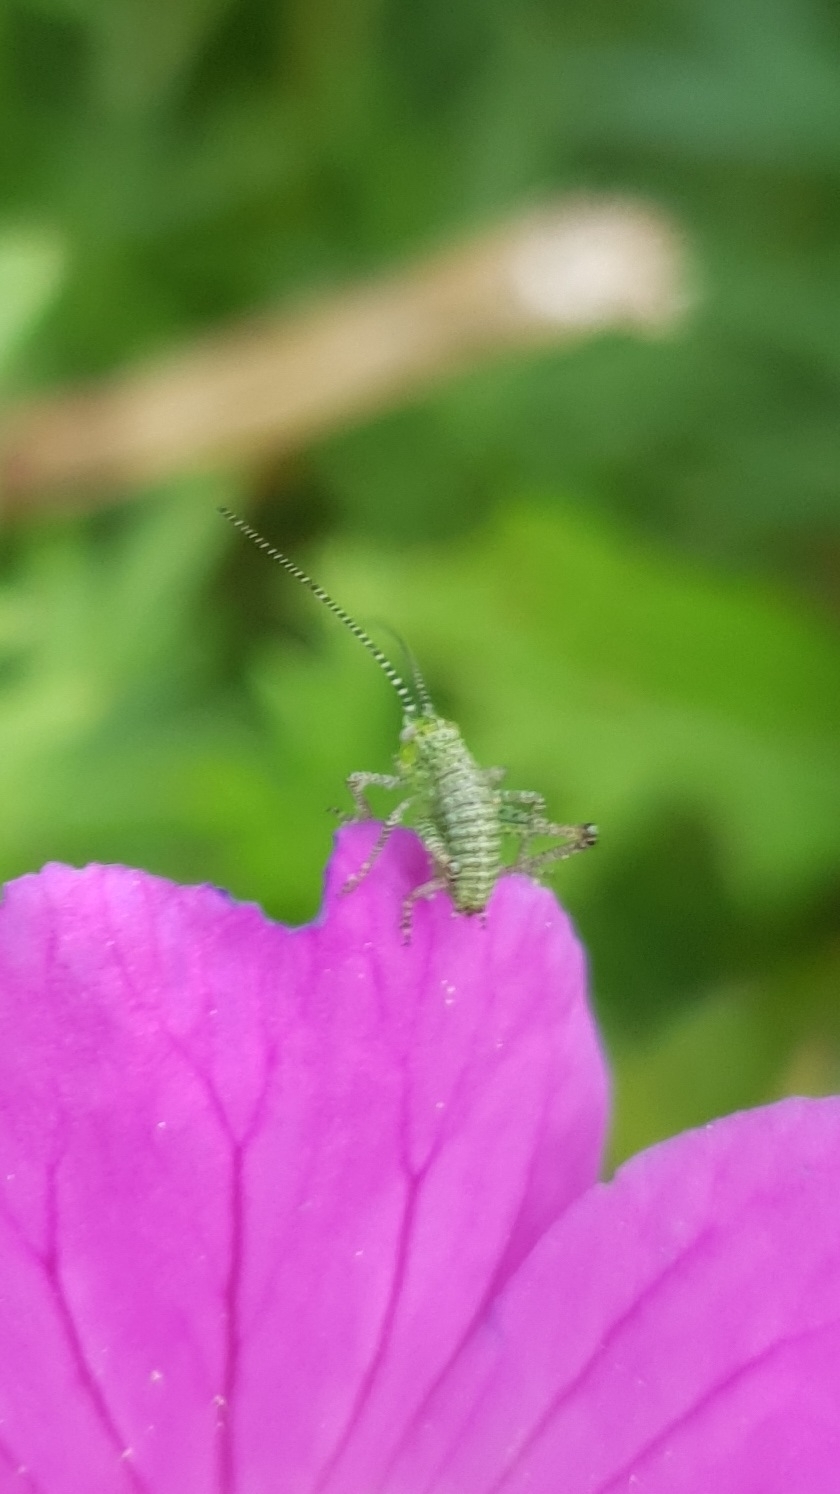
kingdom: Animalia
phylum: Arthropoda
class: Insecta
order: Orthoptera
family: Tettigoniidae
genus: Leptophyes
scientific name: Leptophyes punctatissima
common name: Speckled bush-cricket
